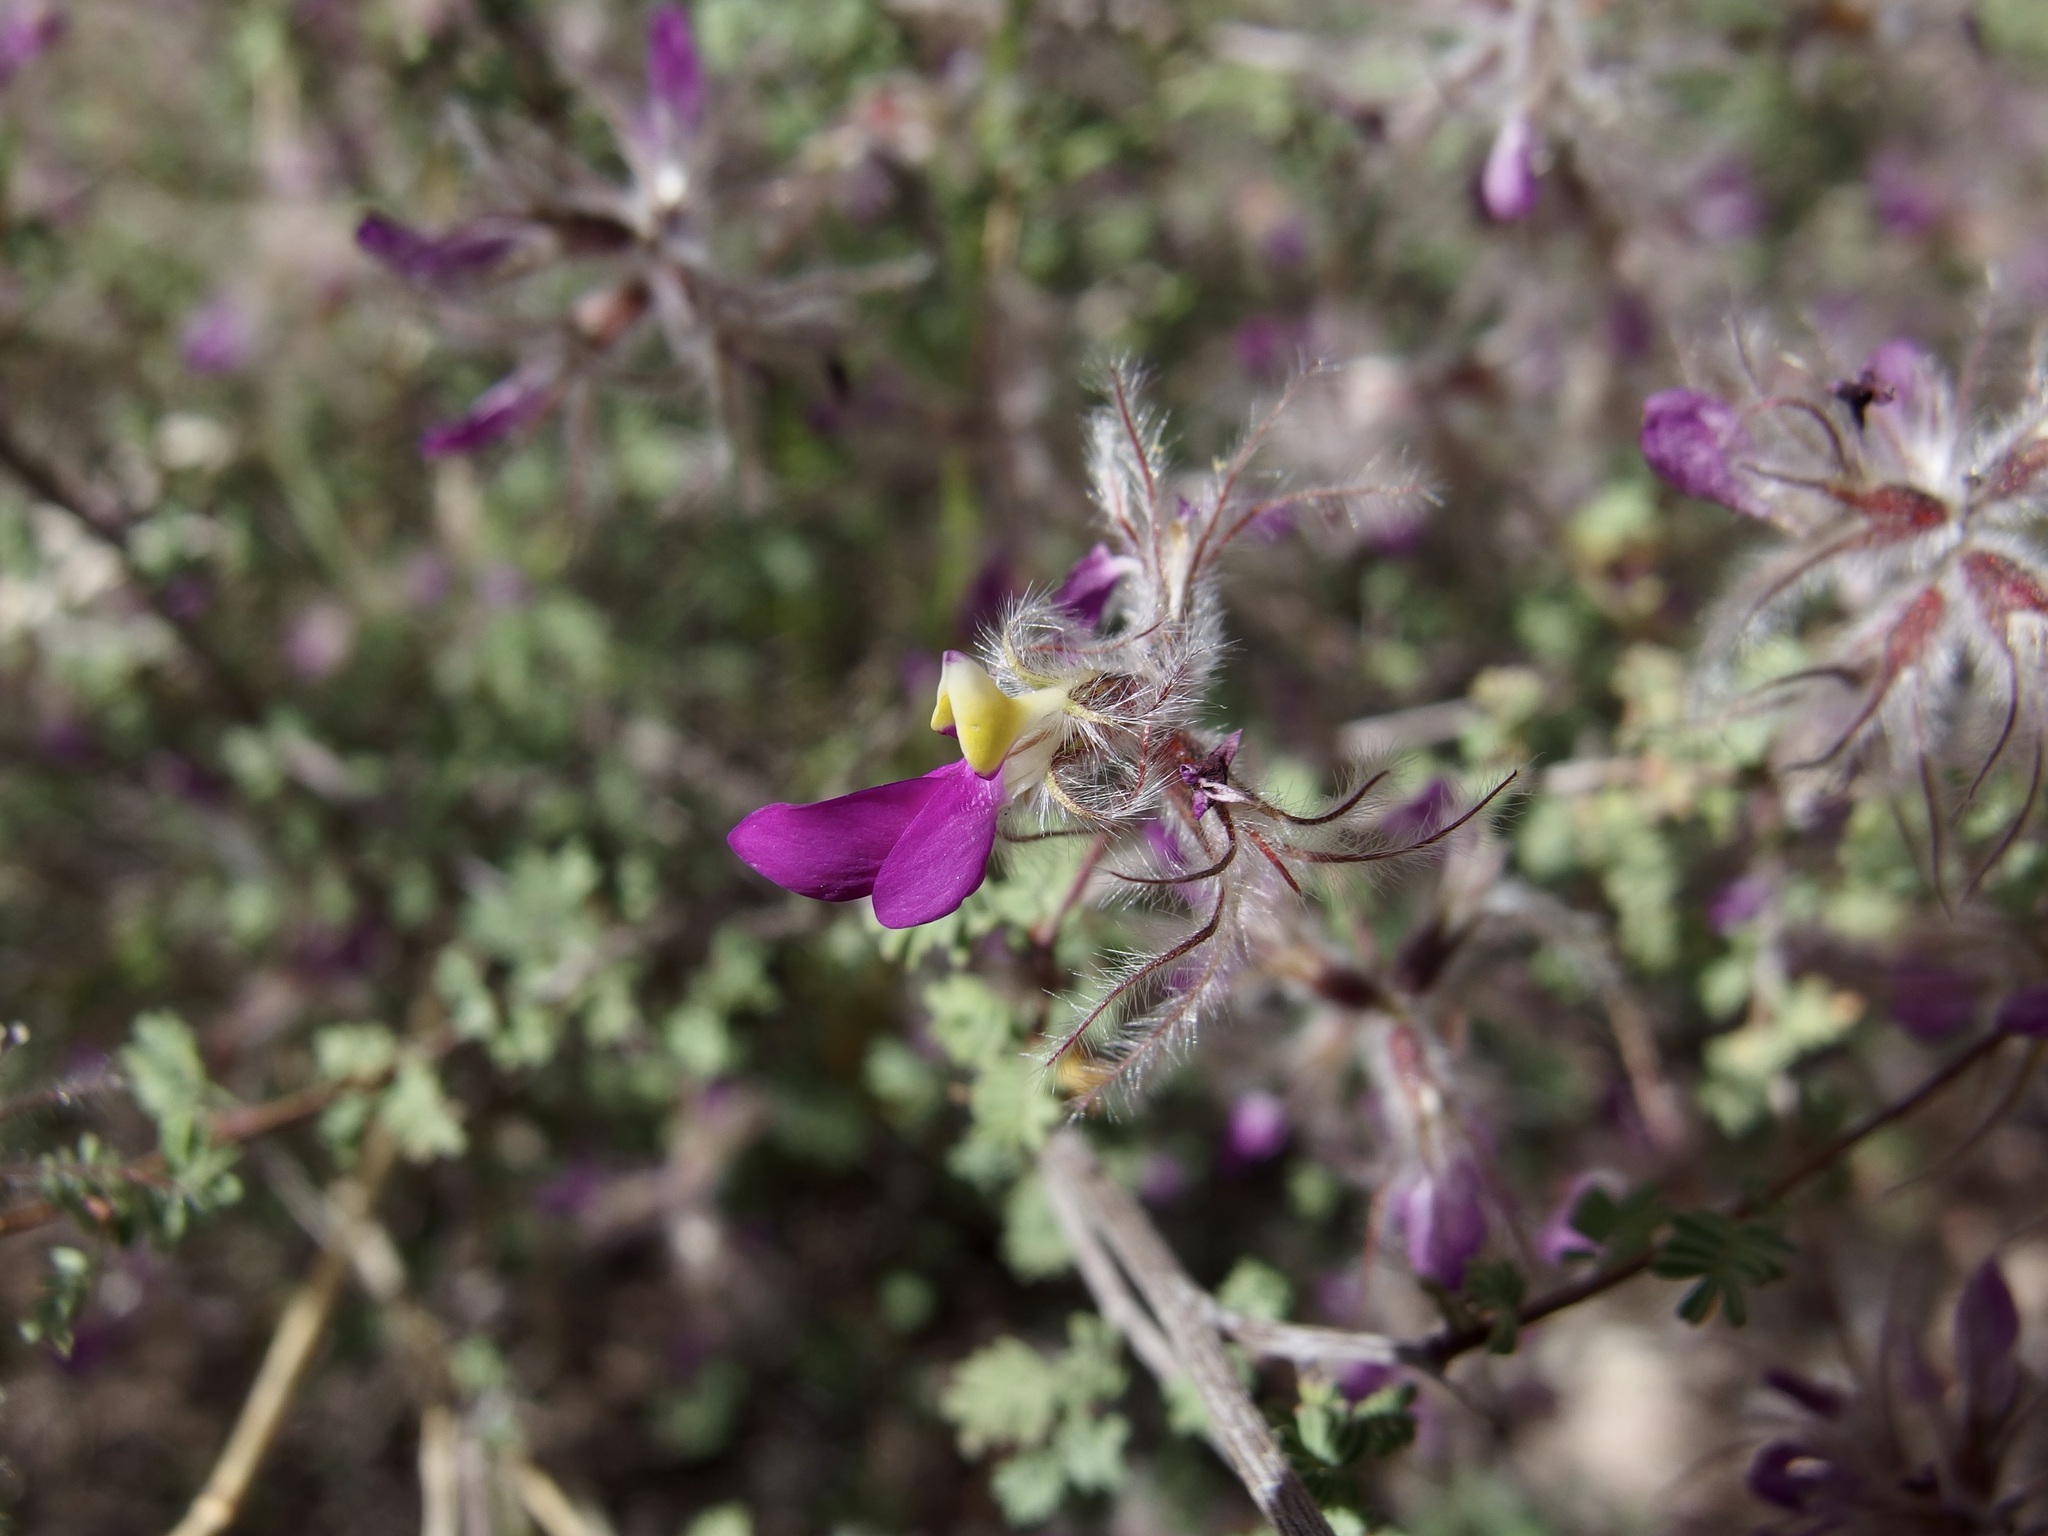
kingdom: Plantae
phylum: Tracheophyta
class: Magnoliopsida
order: Fabales
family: Fabaceae
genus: Dalea
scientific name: Dalea formosa
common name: Feather-plume dalea
